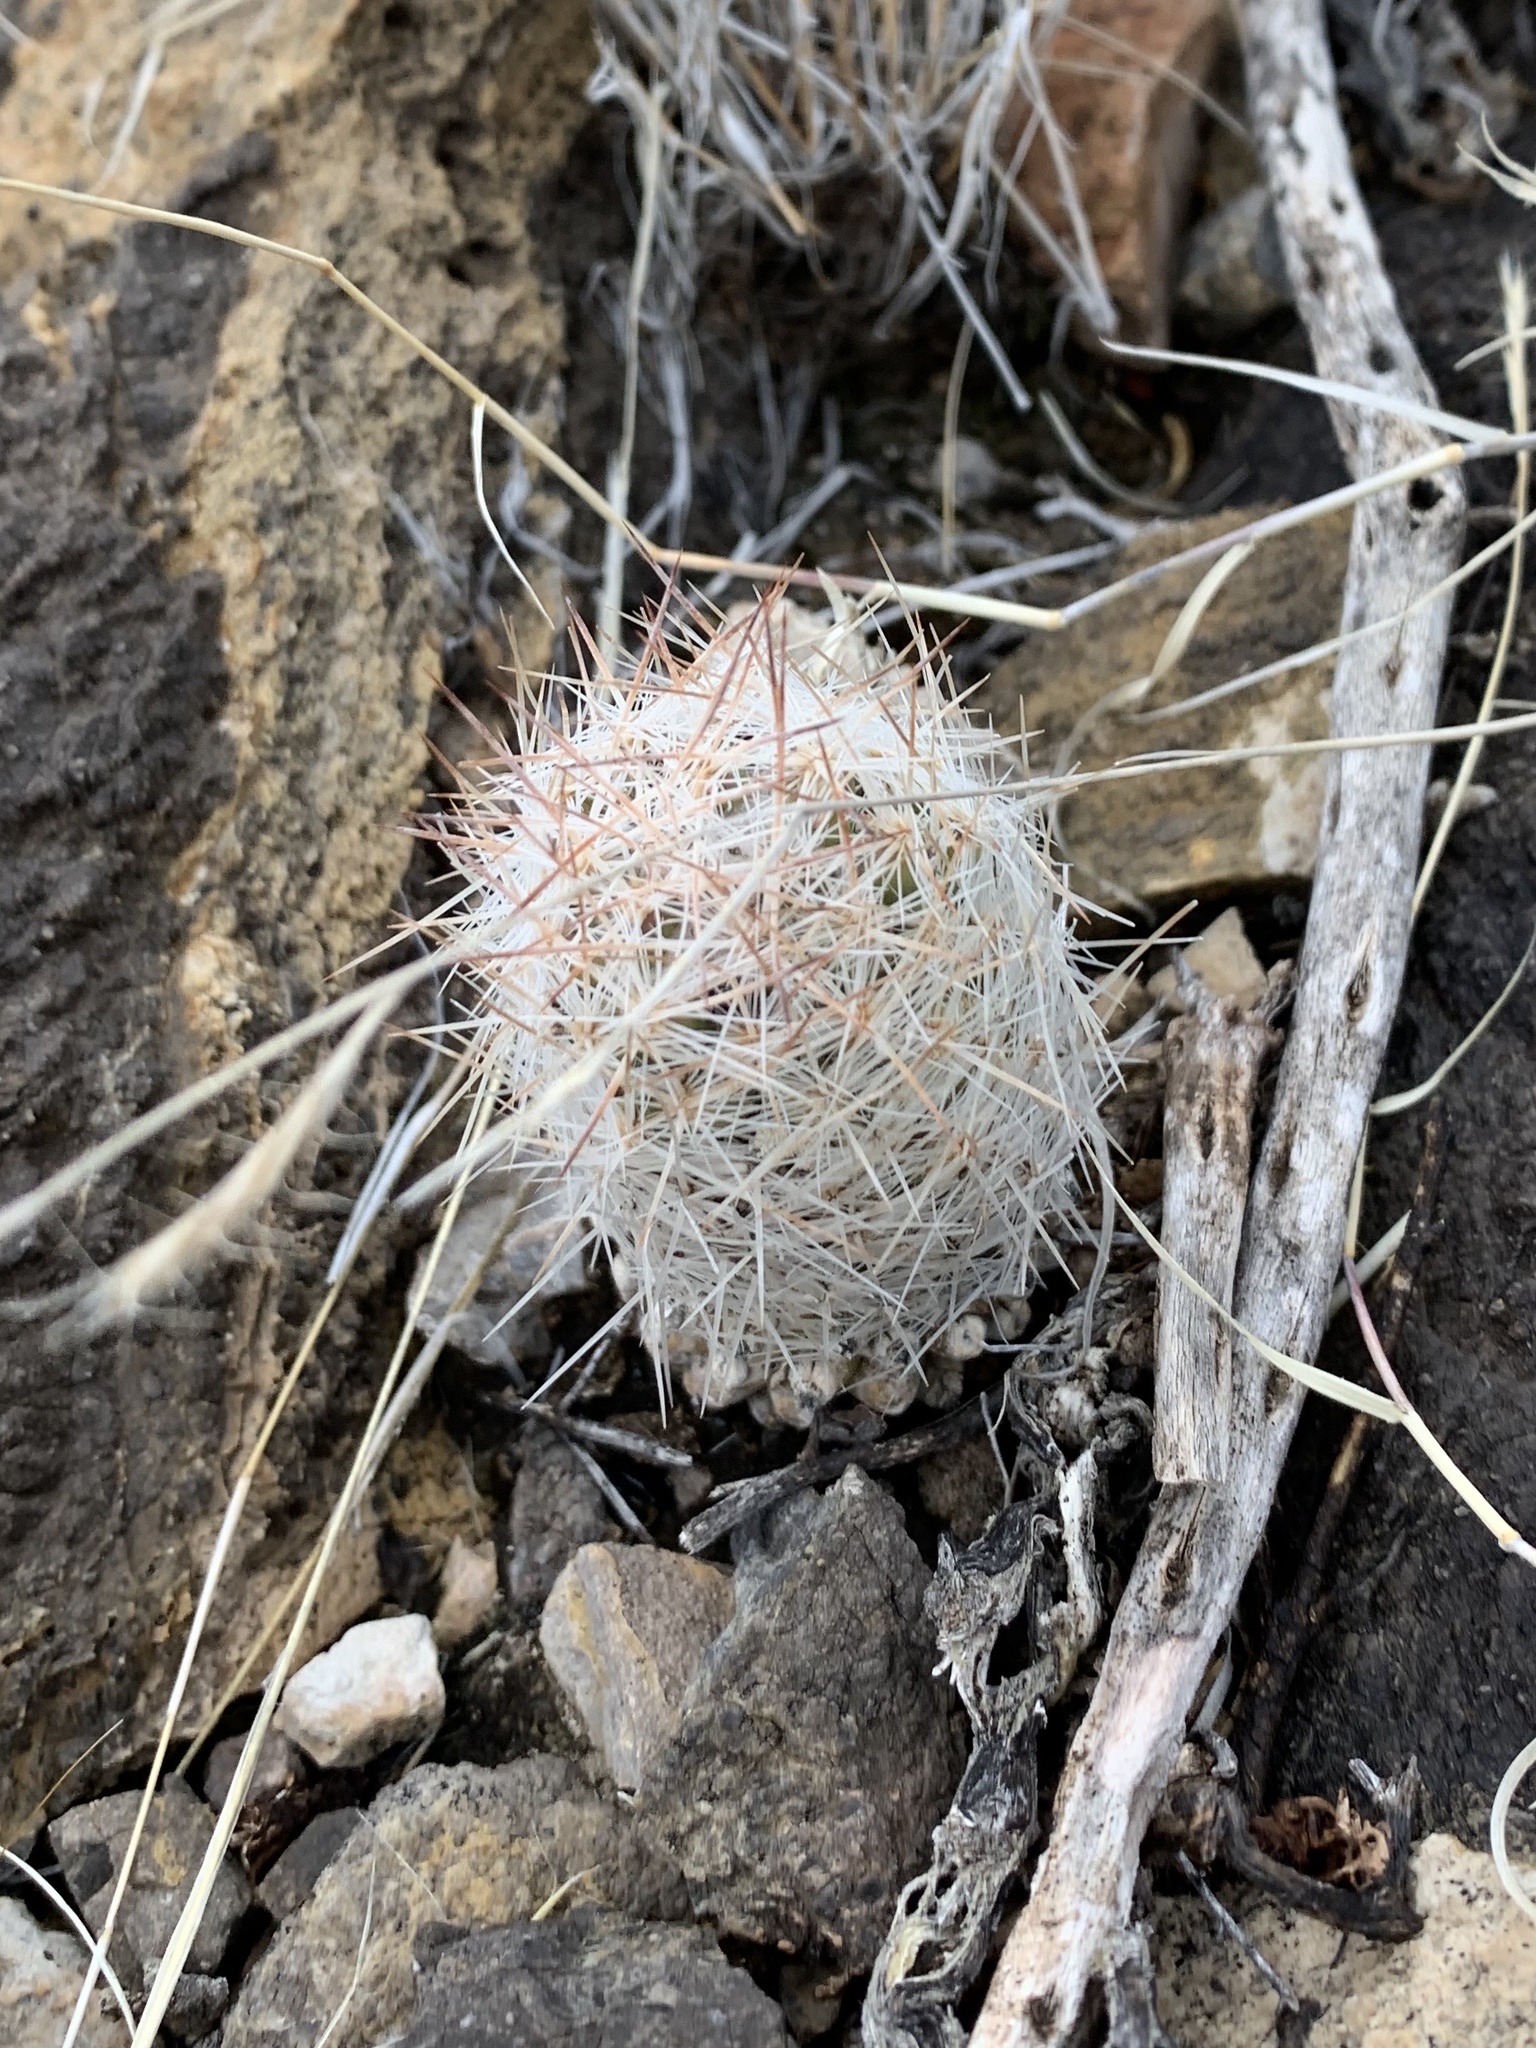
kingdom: Plantae
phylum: Tracheophyta
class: Magnoliopsida
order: Caryophyllales
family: Cactaceae
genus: Pelecyphora
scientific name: Pelecyphora sneedii
